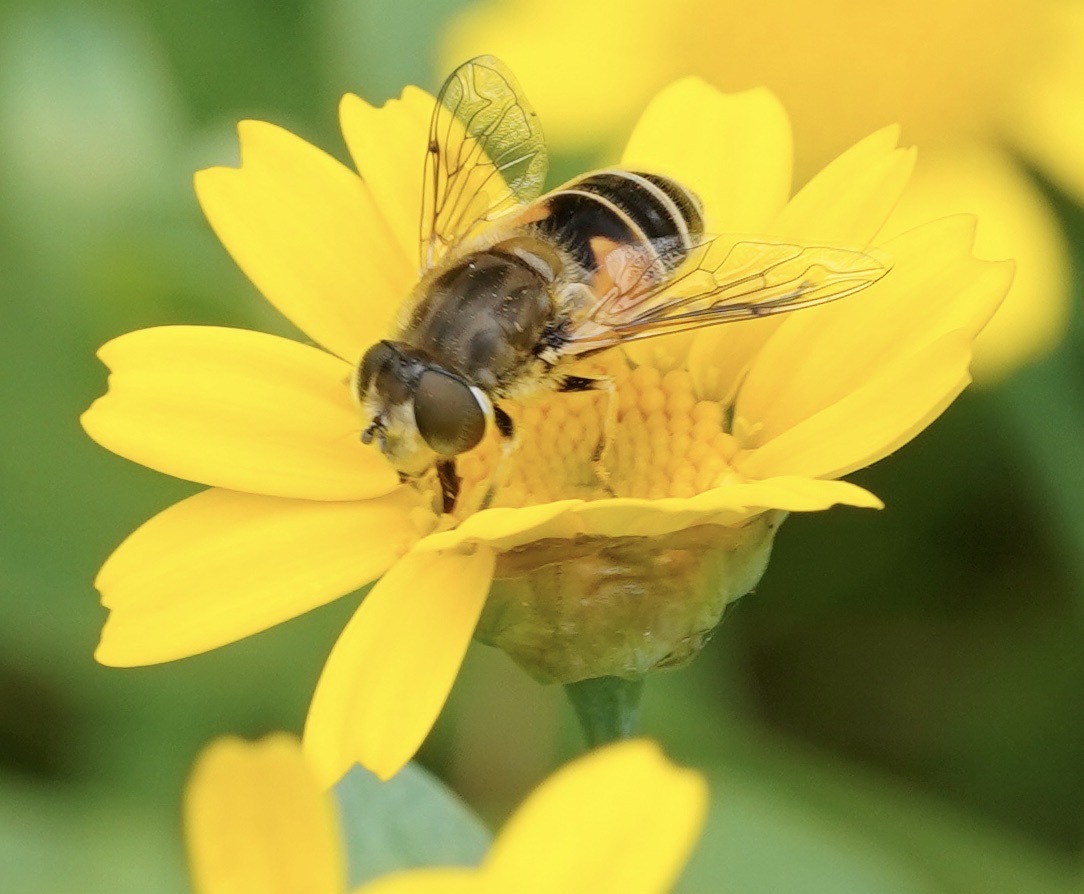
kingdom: Animalia
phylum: Arthropoda
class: Insecta
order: Diptera
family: Syrphidae
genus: Eristalis
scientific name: Eristalis arbustorum
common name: Hover fly
